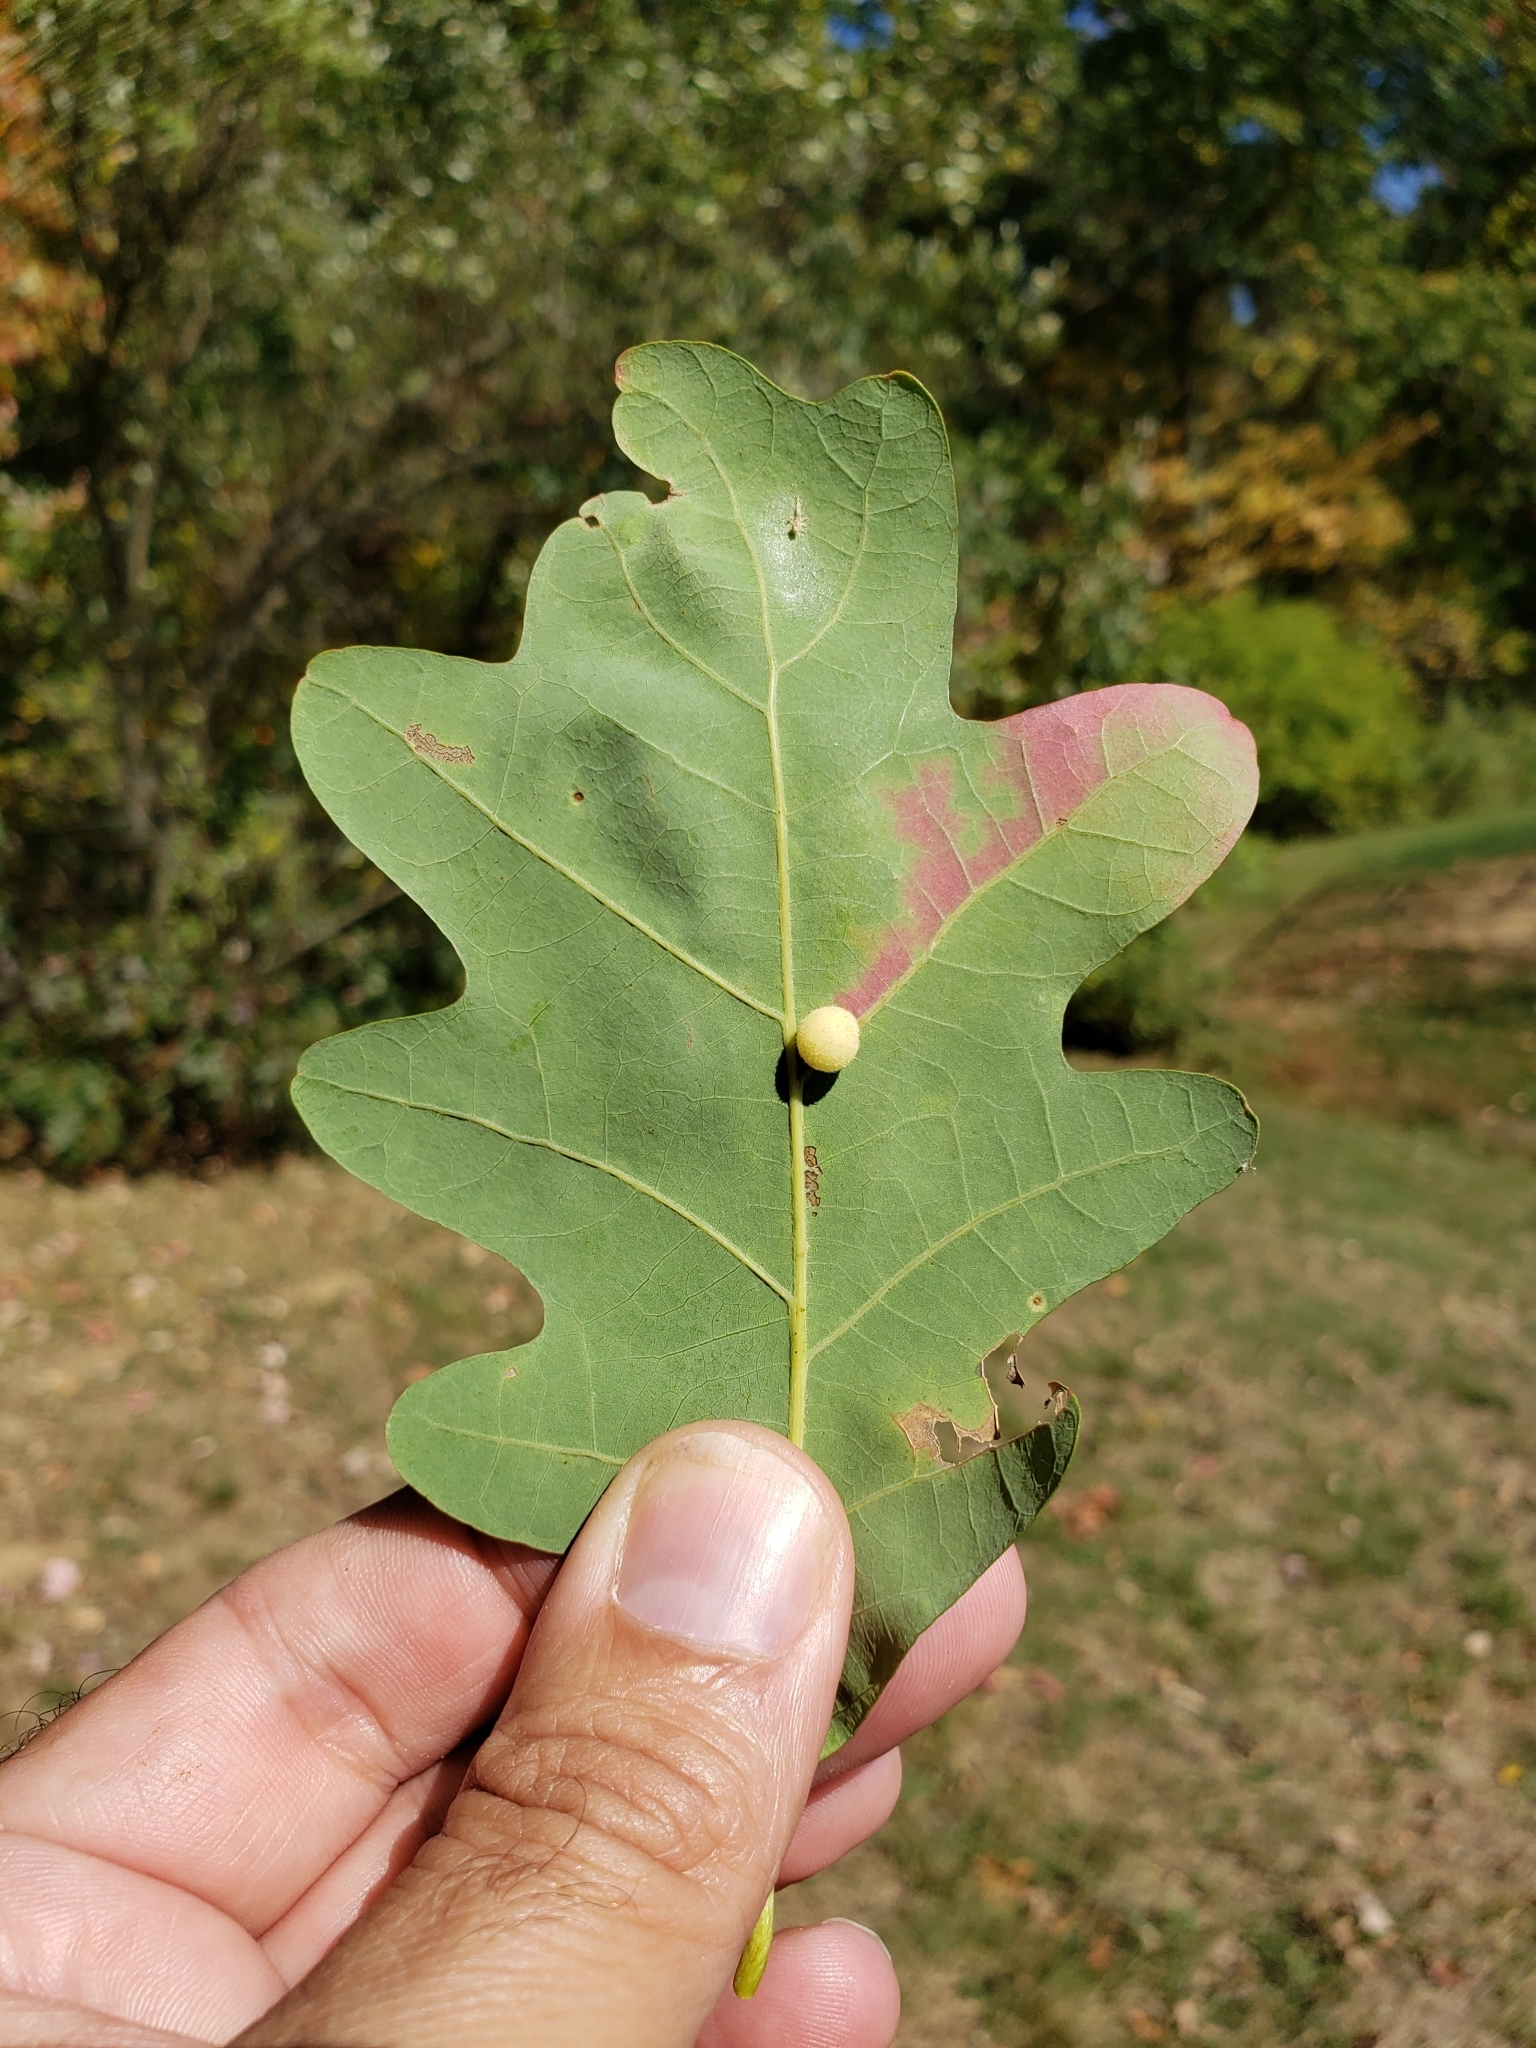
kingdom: Animalia
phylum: Arthropoda
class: Insecta
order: Hymenoptera
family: Cynipidae
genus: Philonix
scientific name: Philonix fulvicollis
